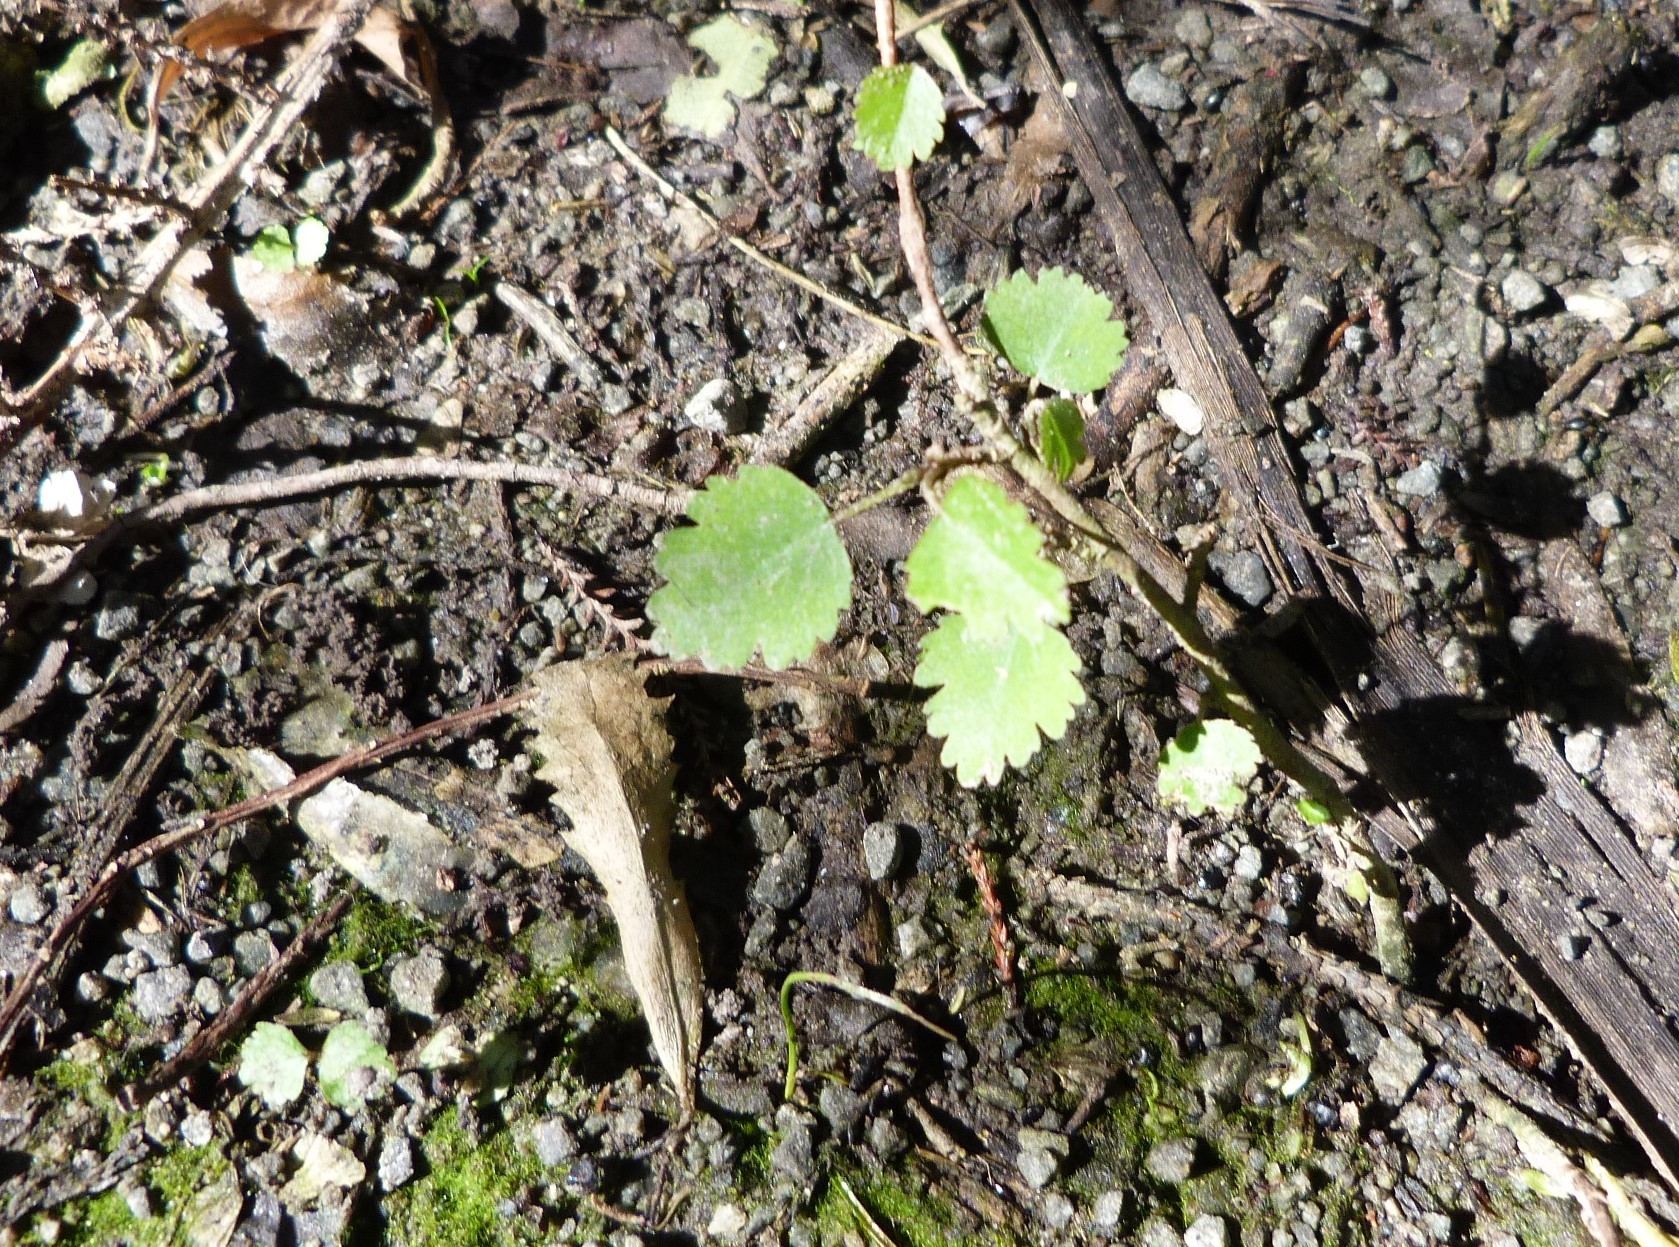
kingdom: Plantae
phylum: Tracheophyta
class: Magnoliopsida
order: Malvales
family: Malvaceae
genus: Plagianthus
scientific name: Plagianthus regius
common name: Manatu
